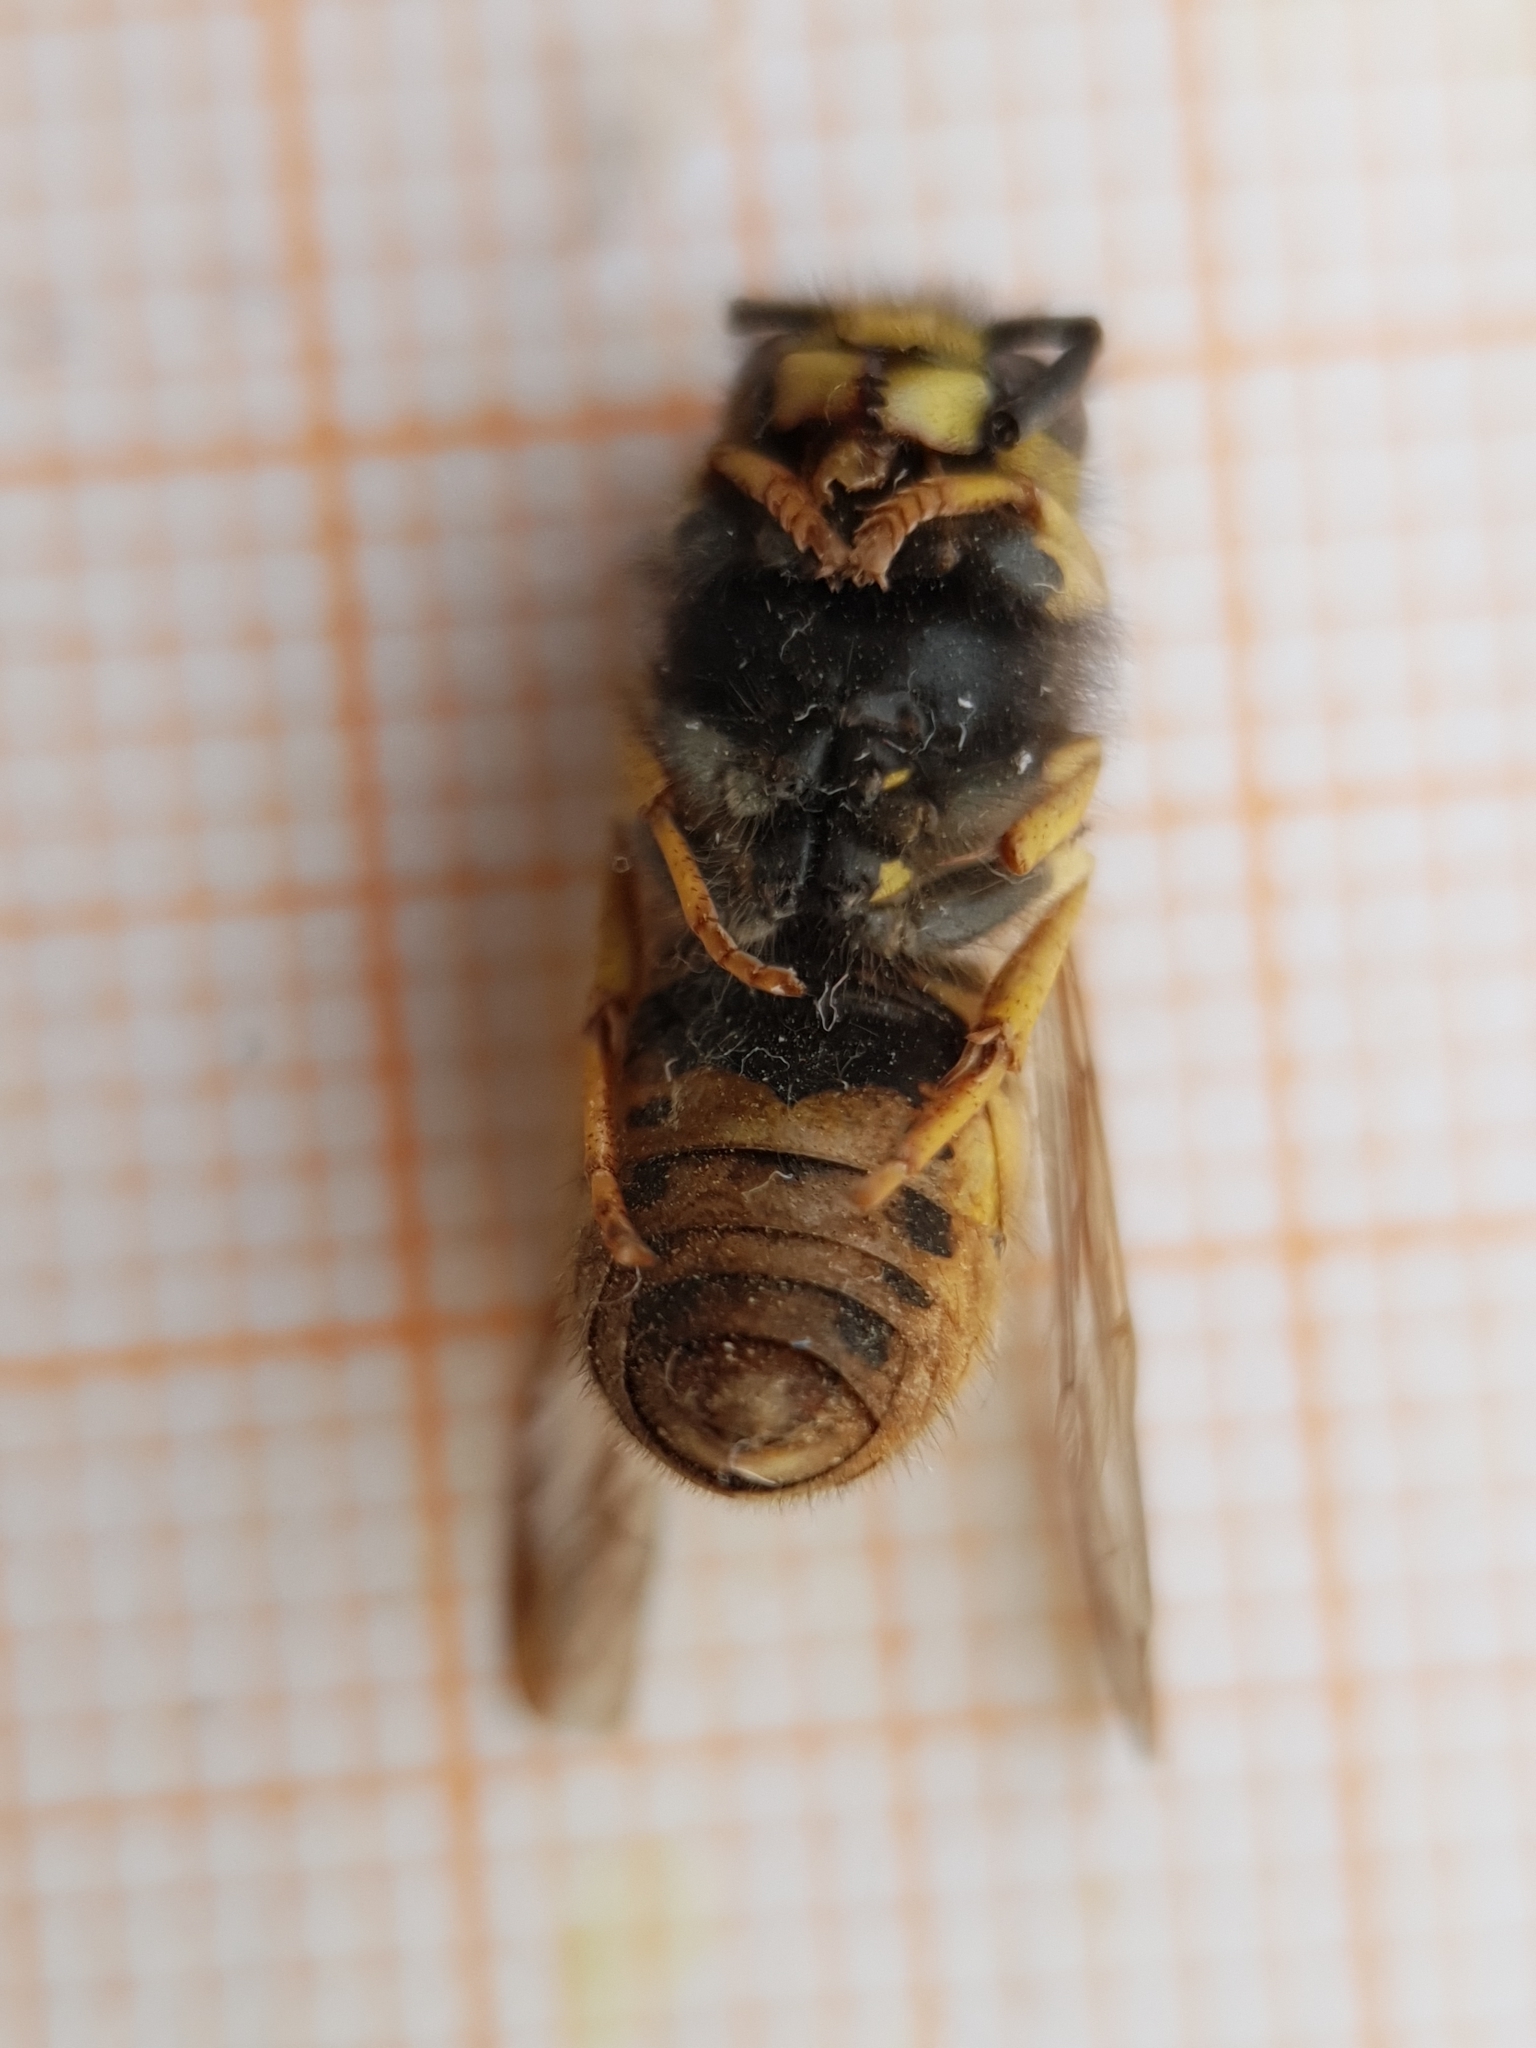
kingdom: Animalia
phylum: Arthropoda
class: Insecta
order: Hymenoptera
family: Vespidae
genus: Vespula
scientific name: Vespula germanica
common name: German wasp
